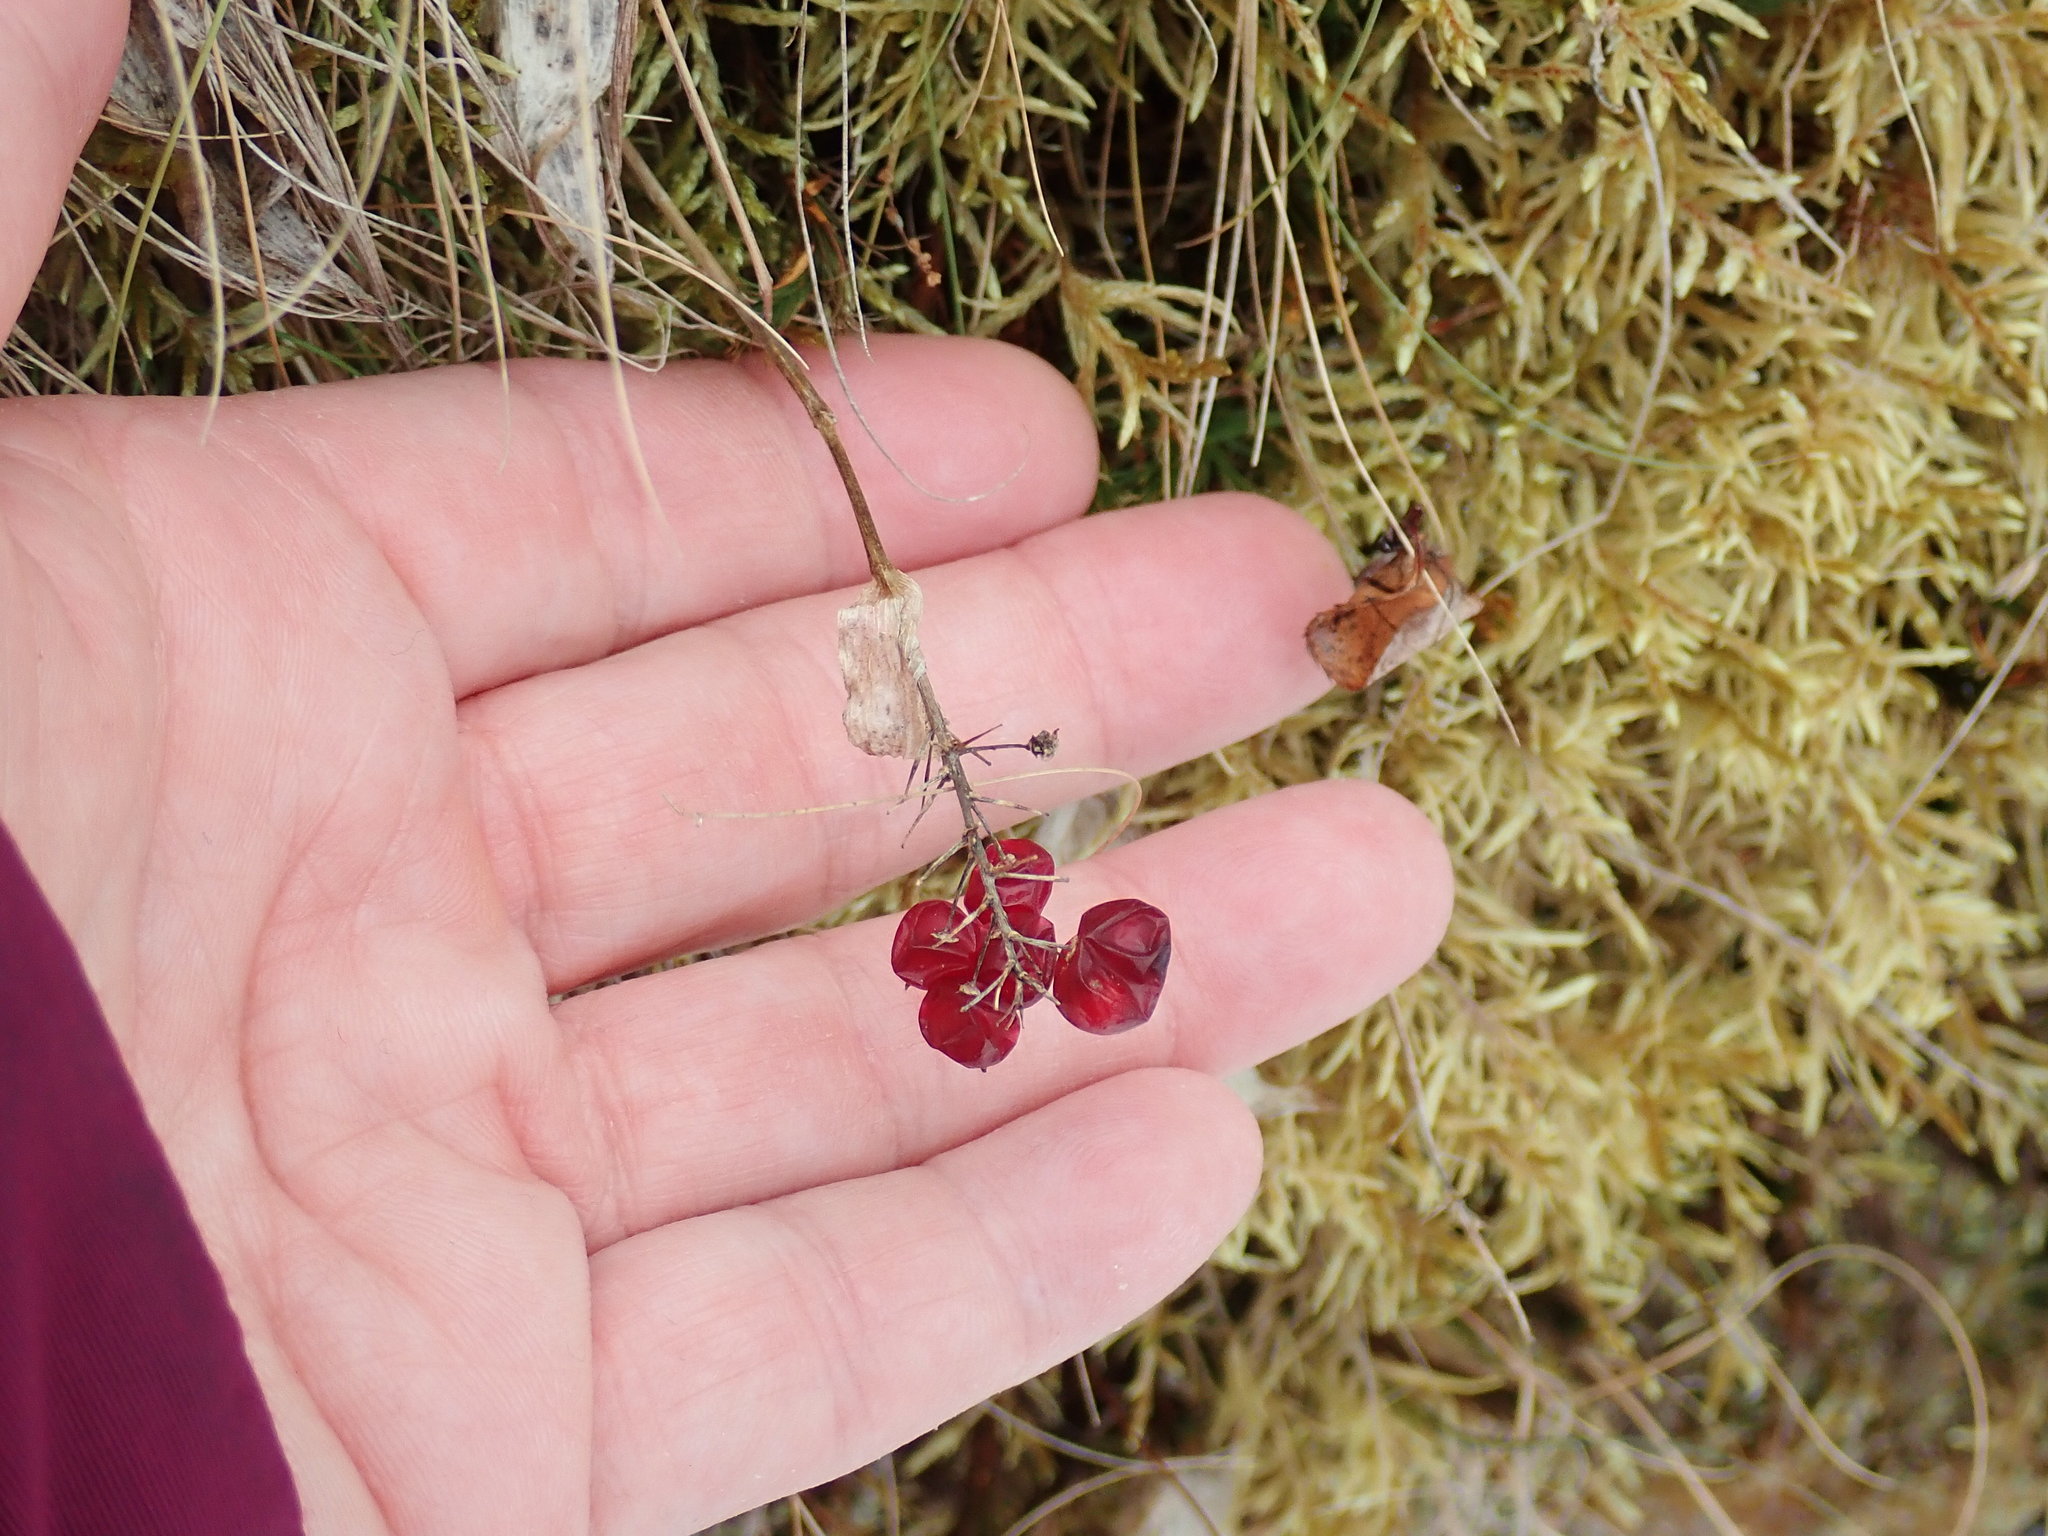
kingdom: Plantae
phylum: Tracheophyta
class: Liliopsida
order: Asparagales
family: Asparagaceae
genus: Maianthemum
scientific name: Maianthemum canadense
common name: False lily-of-the-valley
